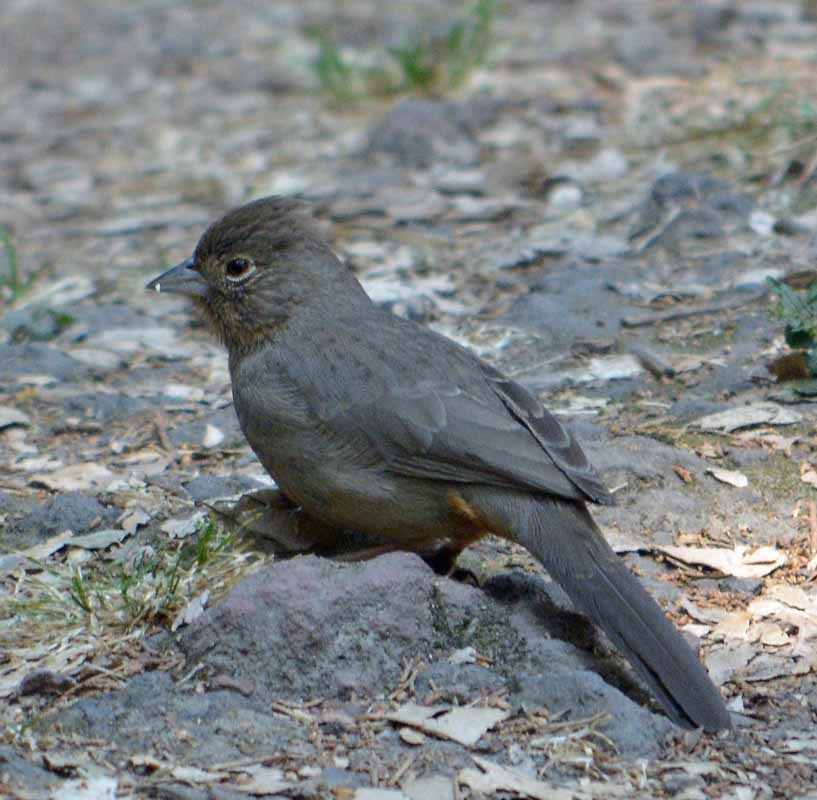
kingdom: Animalia
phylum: Chordata
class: Aves
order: Passeriformes
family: Passerellidae
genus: Melozone
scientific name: Melozone fusca
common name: Canyon towhee
